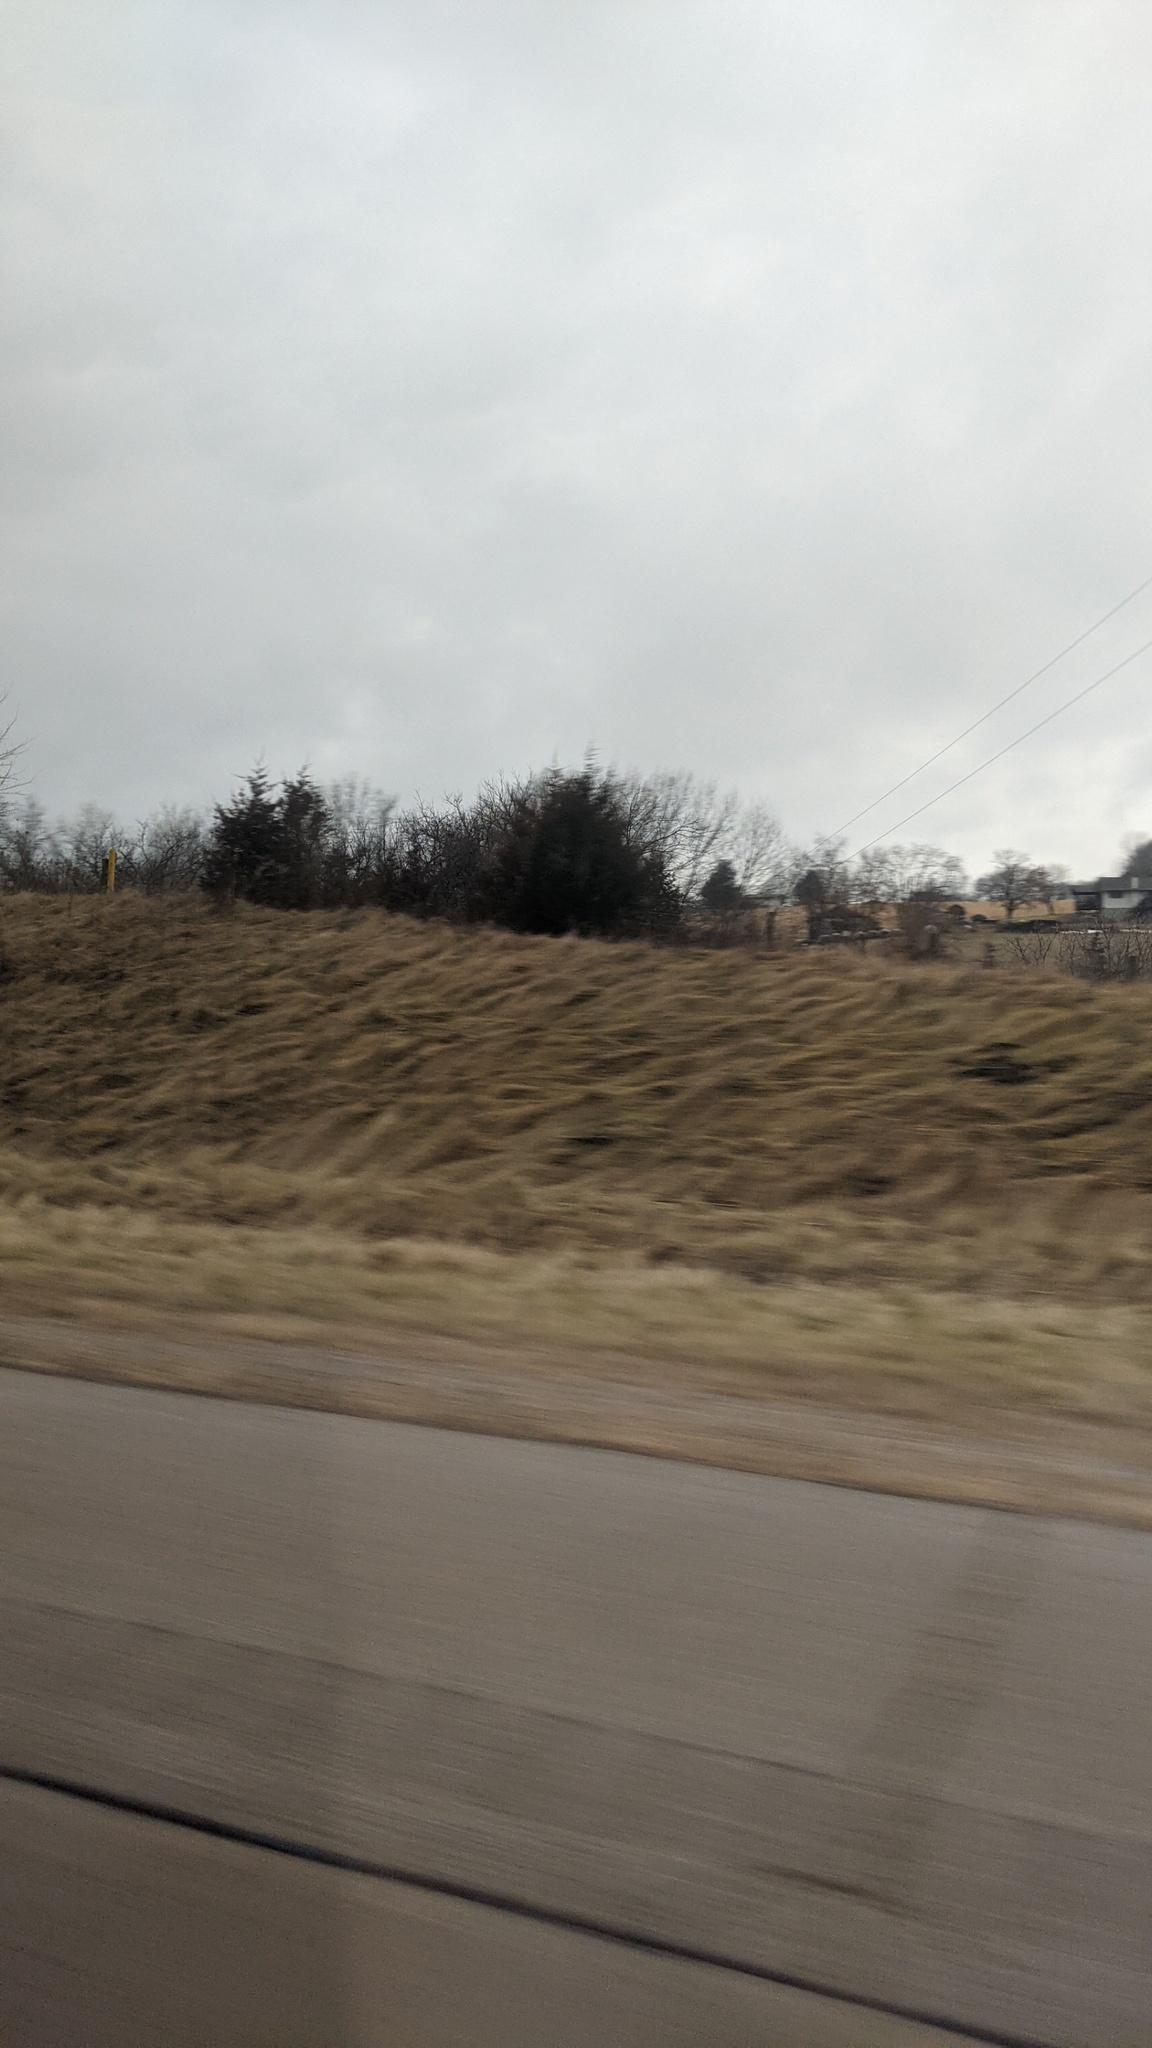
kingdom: Plantae
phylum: Tracheophyta
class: Pinopsida
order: Pinales
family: Cupressaceae
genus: Juniperus
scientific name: Juniperus virginiana
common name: Red juniper
